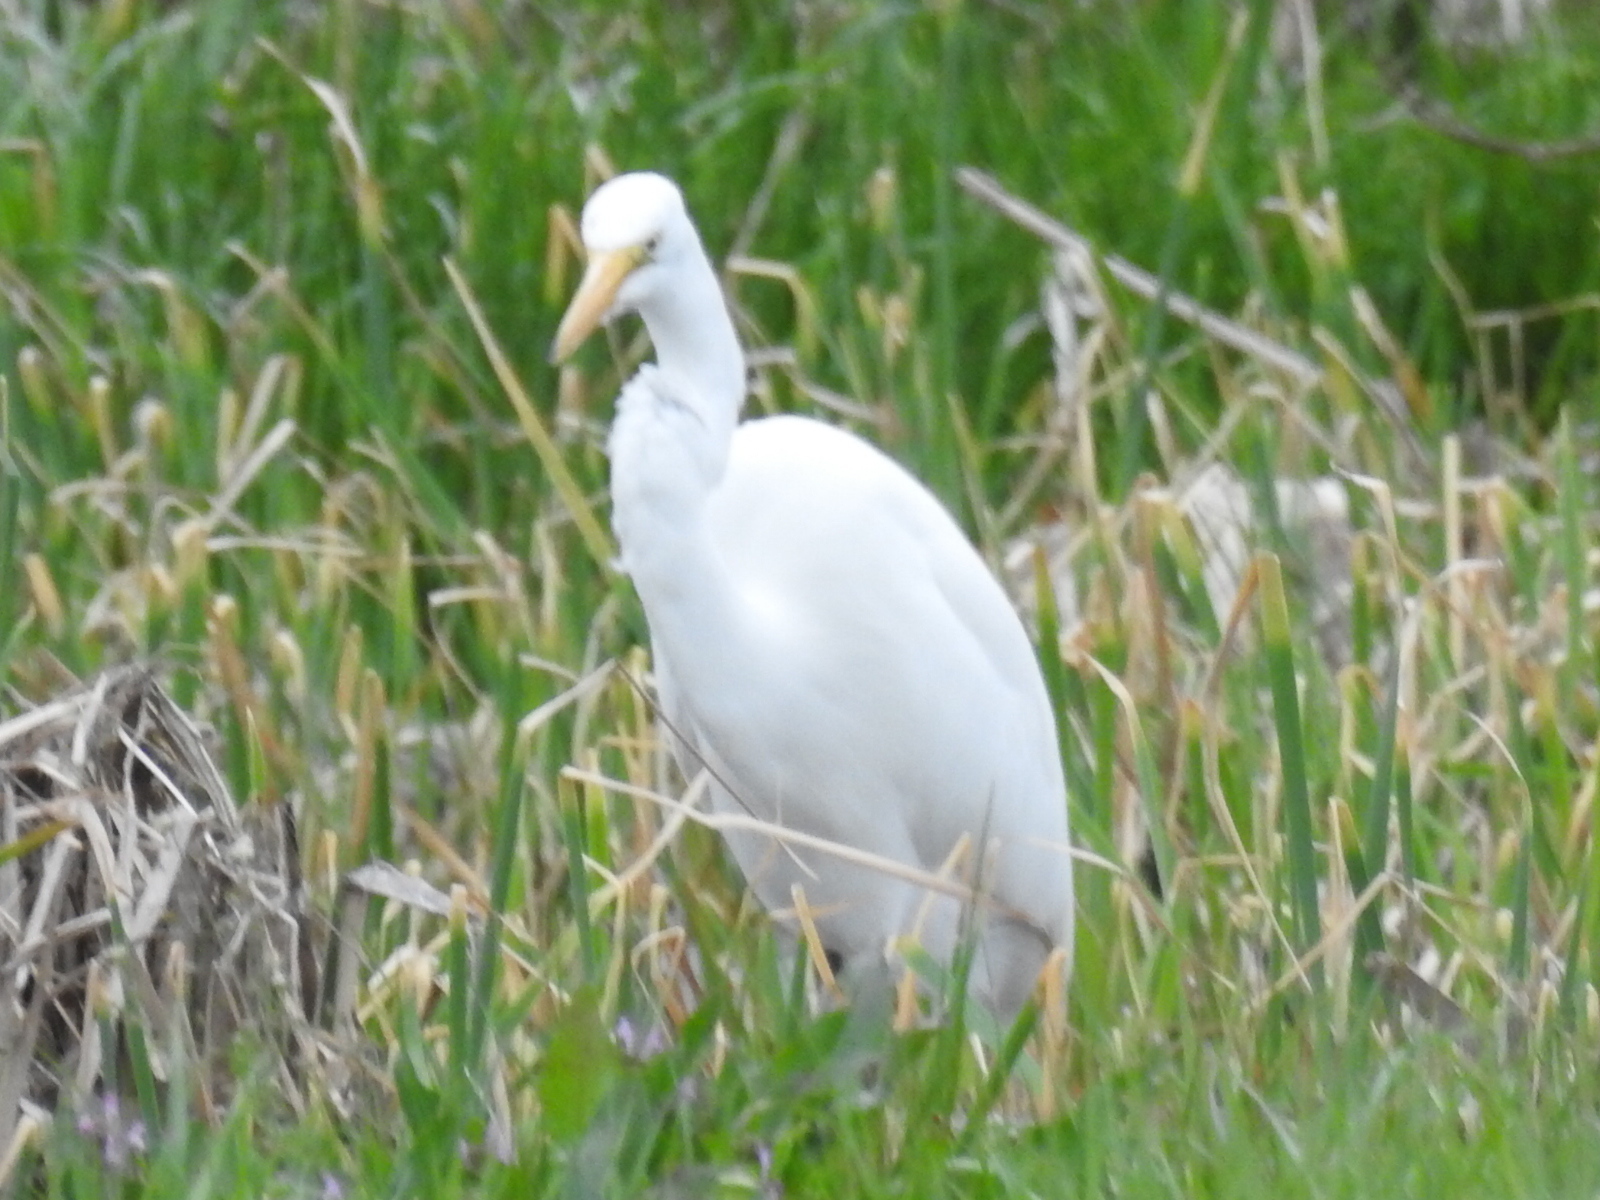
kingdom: Animalia
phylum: Chordata
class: Aves
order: Pelecaniformes
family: Ardeidae
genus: Ardea
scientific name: Ardea alba
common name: Great egret
